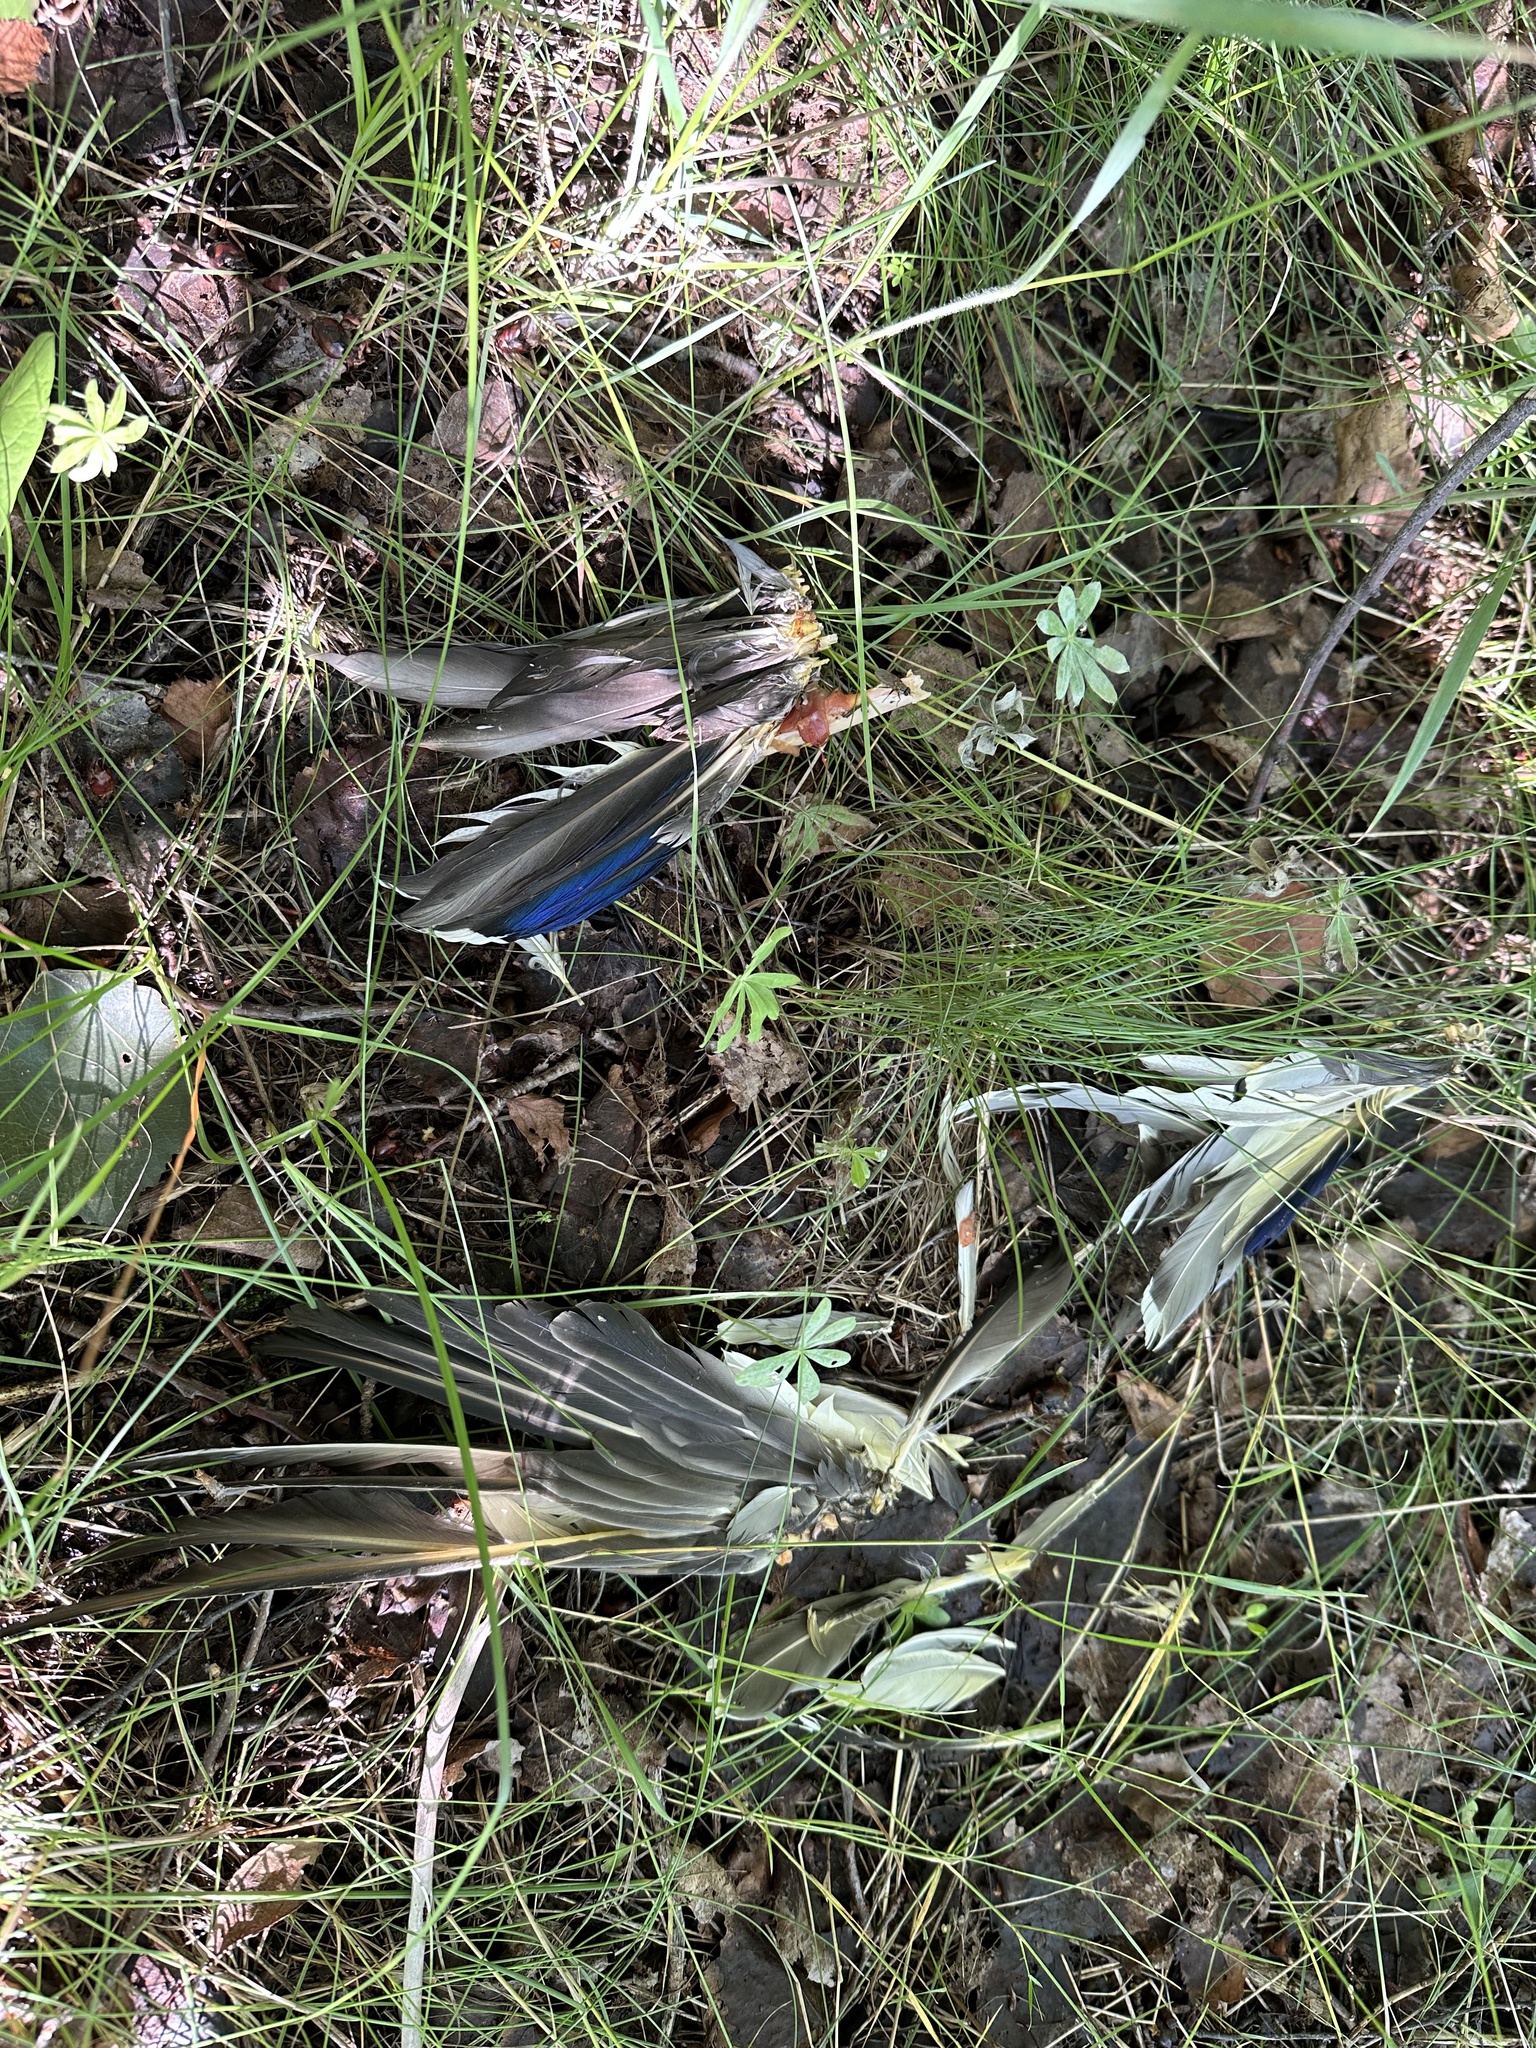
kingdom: Animalia
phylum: Chordata
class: Aves
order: Anseriformes
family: Anatidae
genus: Anas
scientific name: Anas platyrhynchos
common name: Mallard
